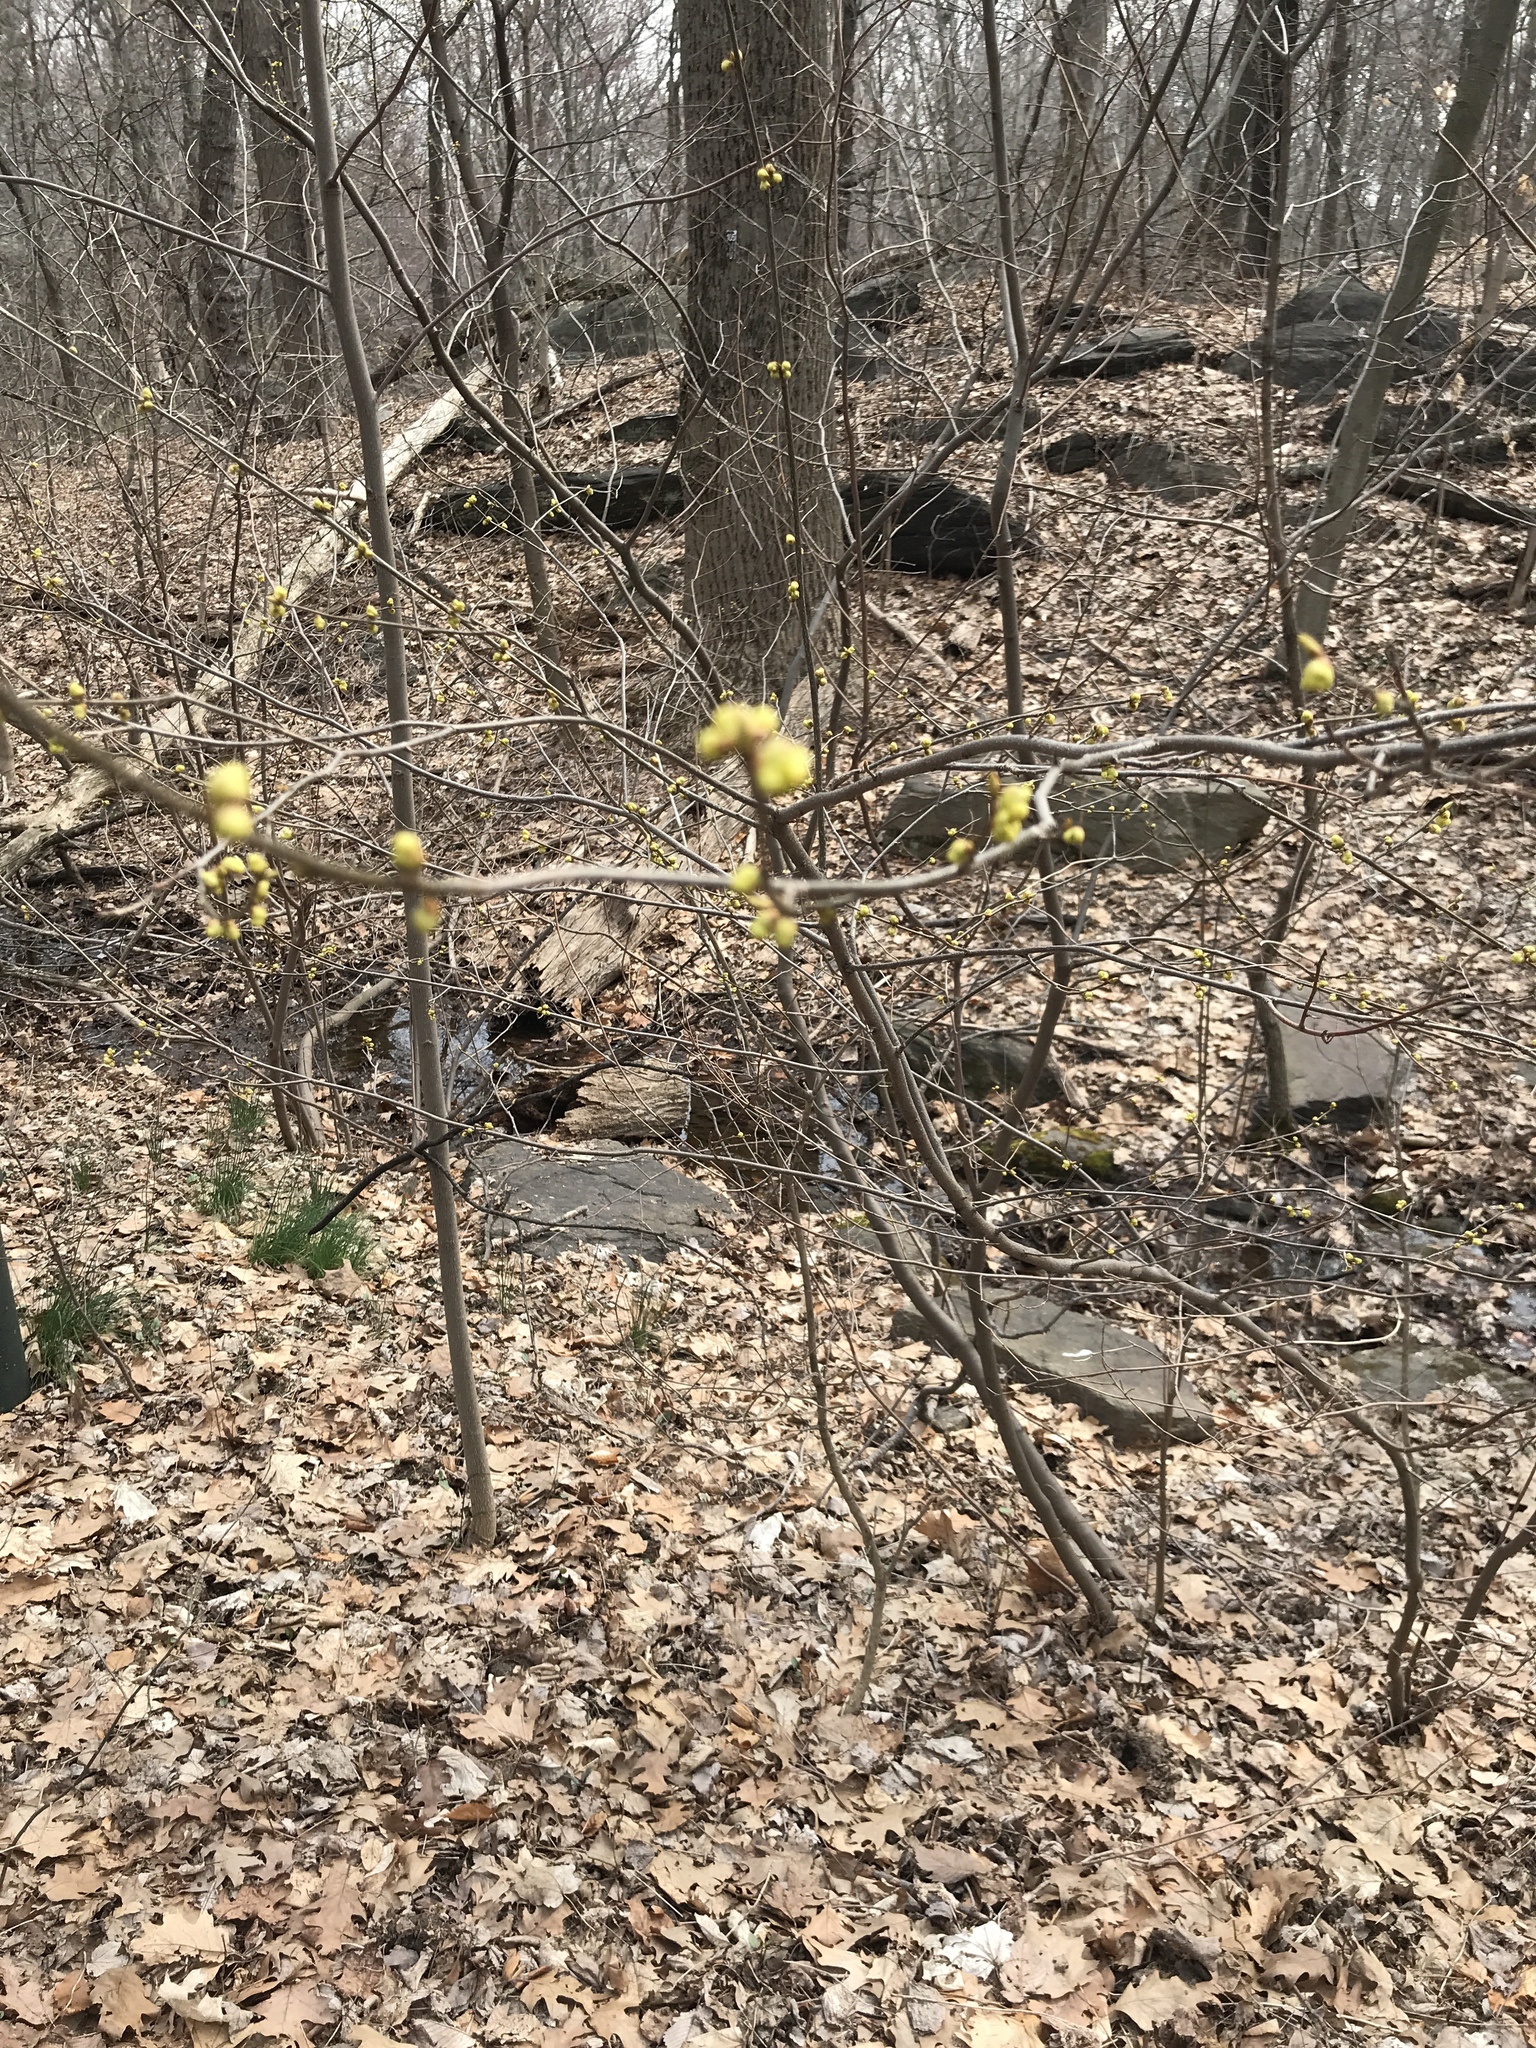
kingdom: Plantae
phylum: Tracheophyta
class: Magnoliopsida
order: Laurales
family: Lauraceae
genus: Lindera
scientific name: Lindera benzoin
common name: Spicebush
